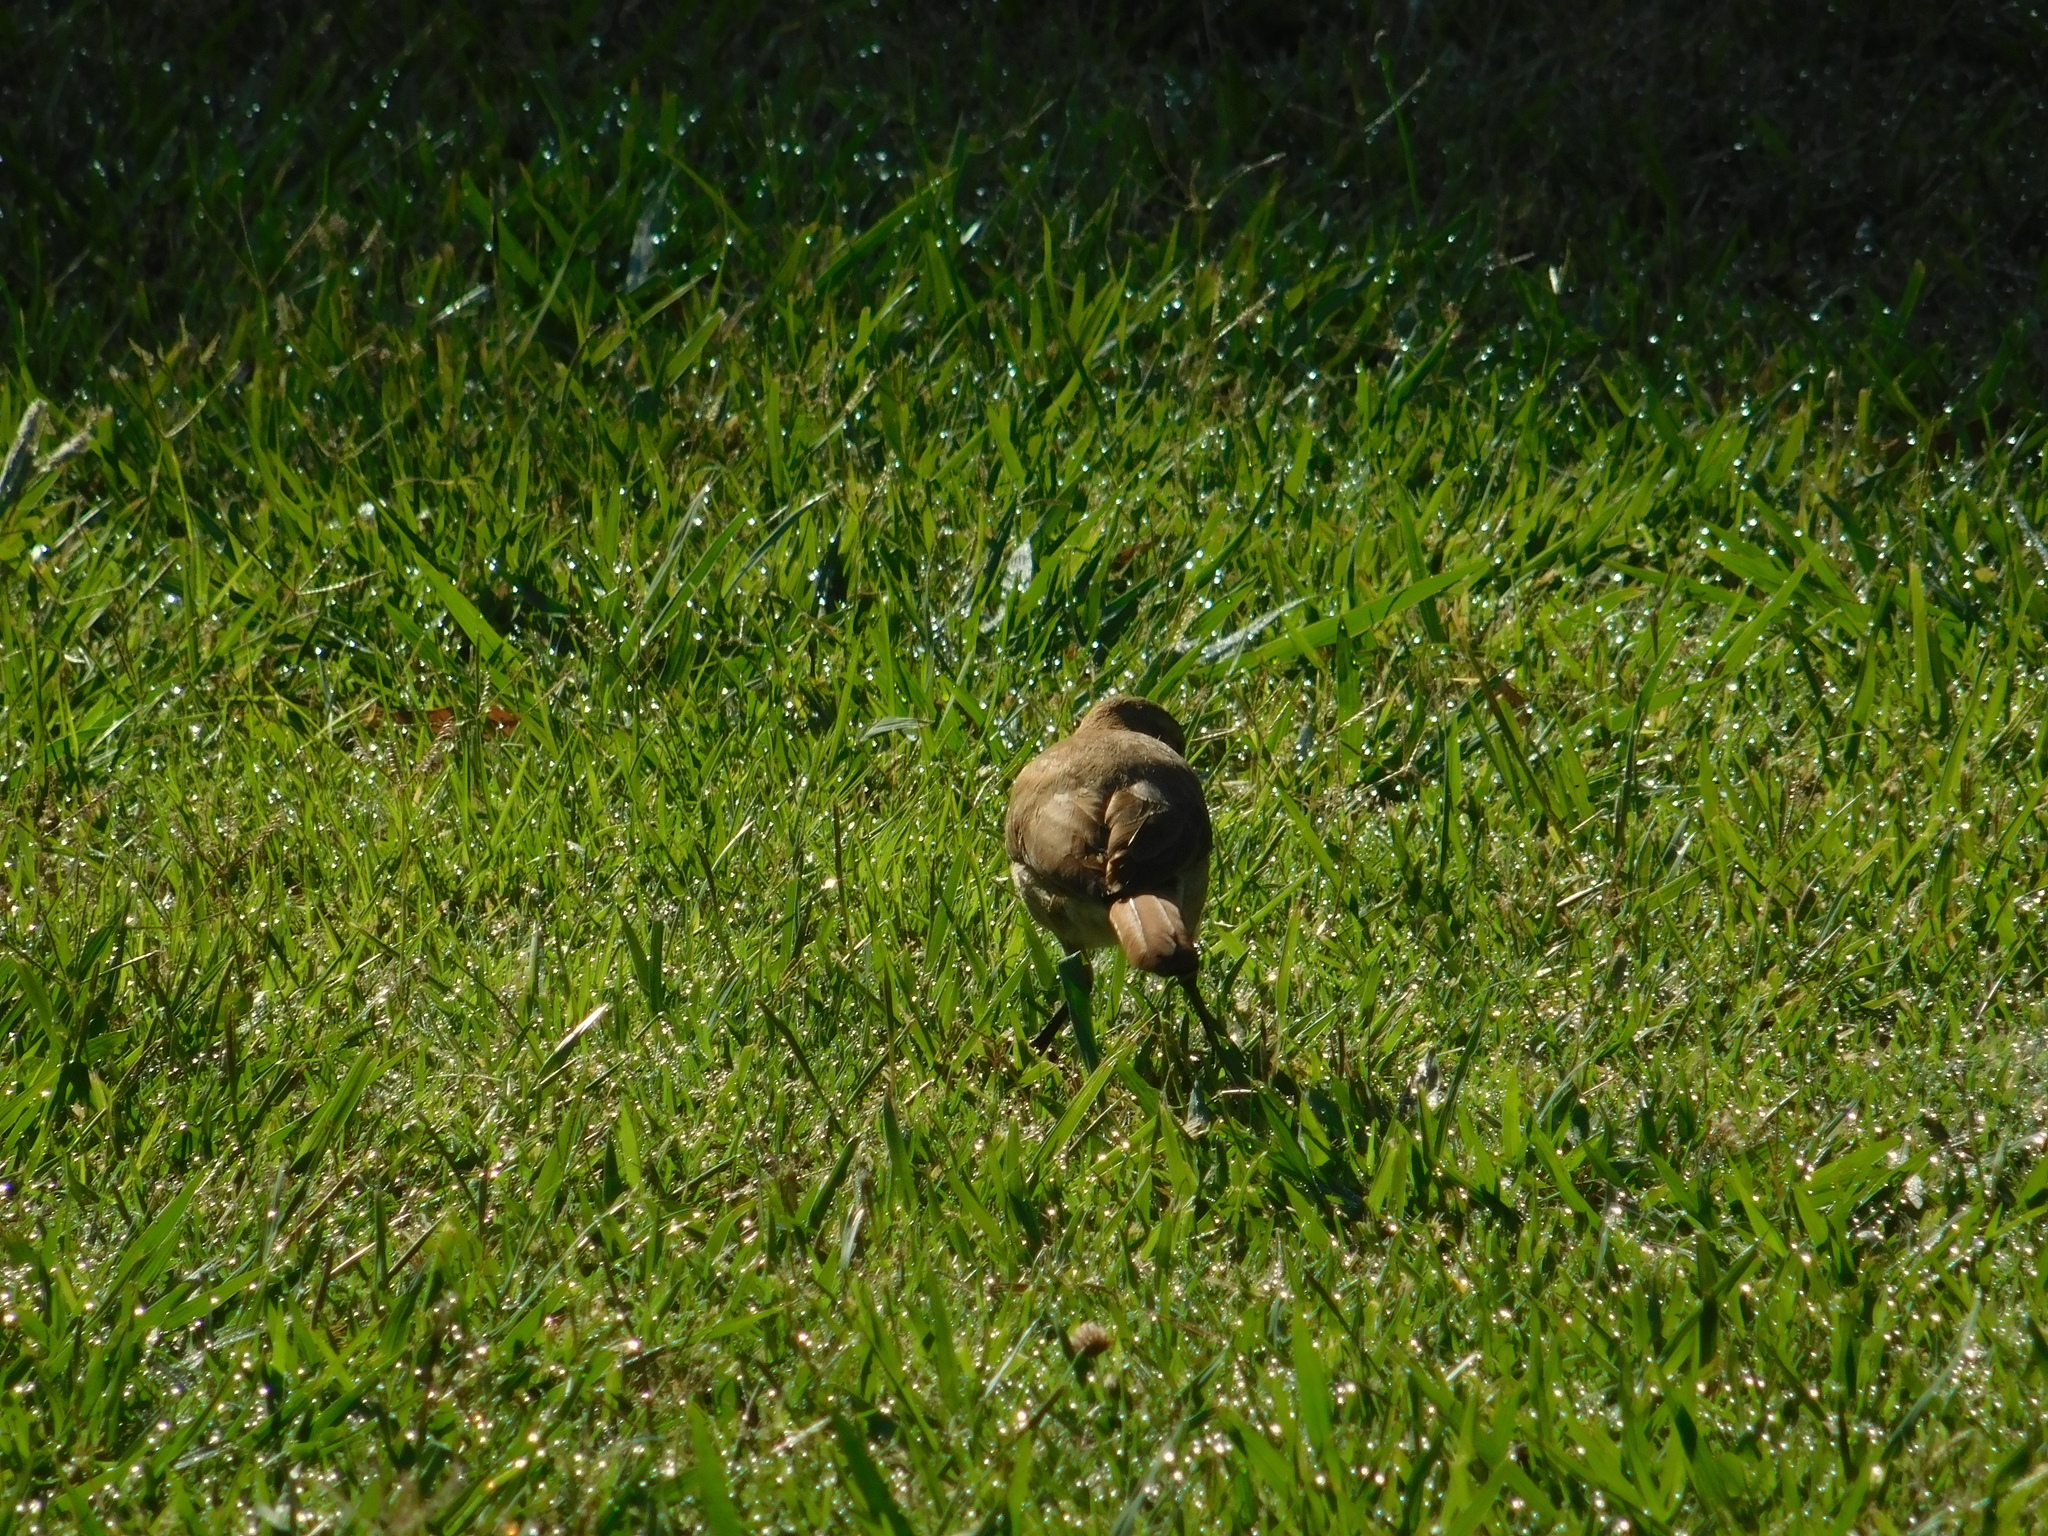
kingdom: Animalia
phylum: Chordata
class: Aves
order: Passeriformes
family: Furnariidae
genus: Furnarius
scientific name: Furnarius rufus
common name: Rufous hornero
